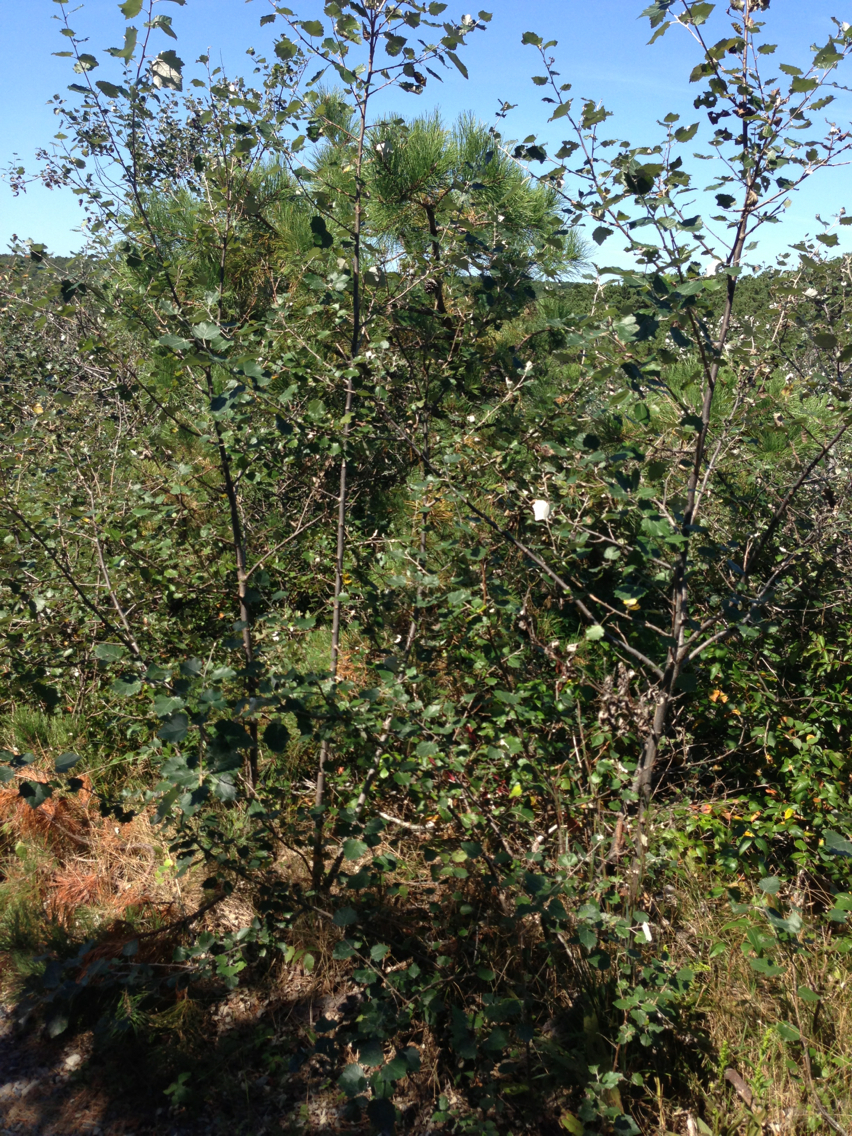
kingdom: Plantae
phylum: Tracheophyta
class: Magnoliopsida
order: Malpighiales
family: Salicaceae
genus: Populus
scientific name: Populus alba
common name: White poplar
